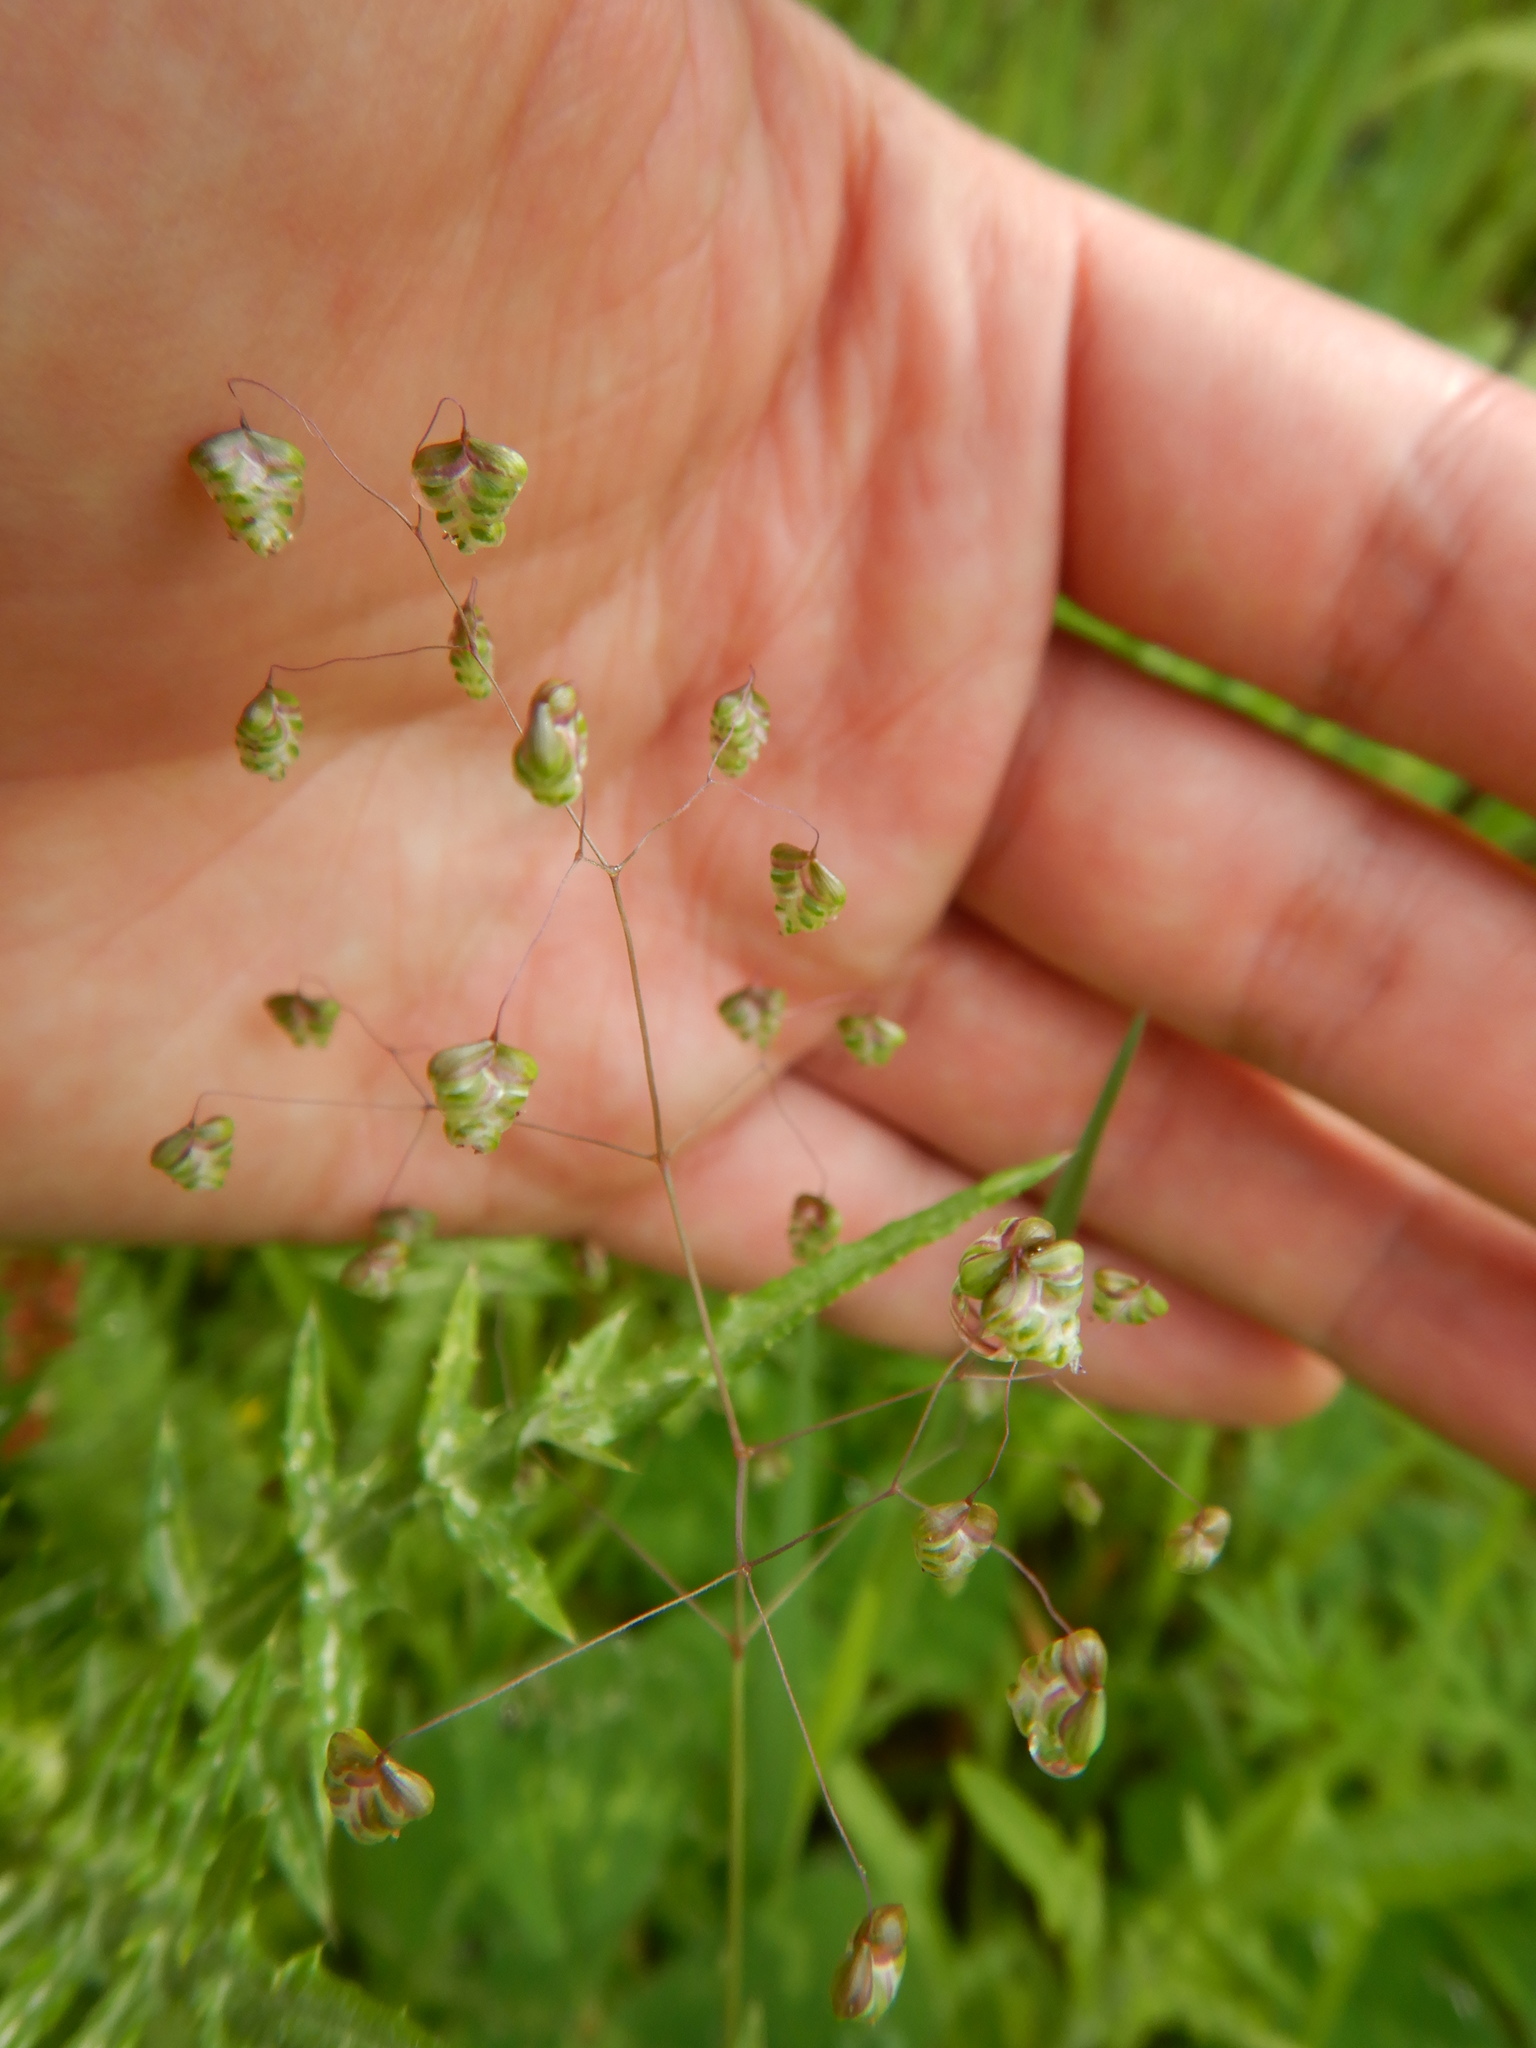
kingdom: Plantae
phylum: Tracheophyta
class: Liliopsida
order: Poales
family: Poaceae
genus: Briza
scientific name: Briza minor
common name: Lesser quaking-grass
